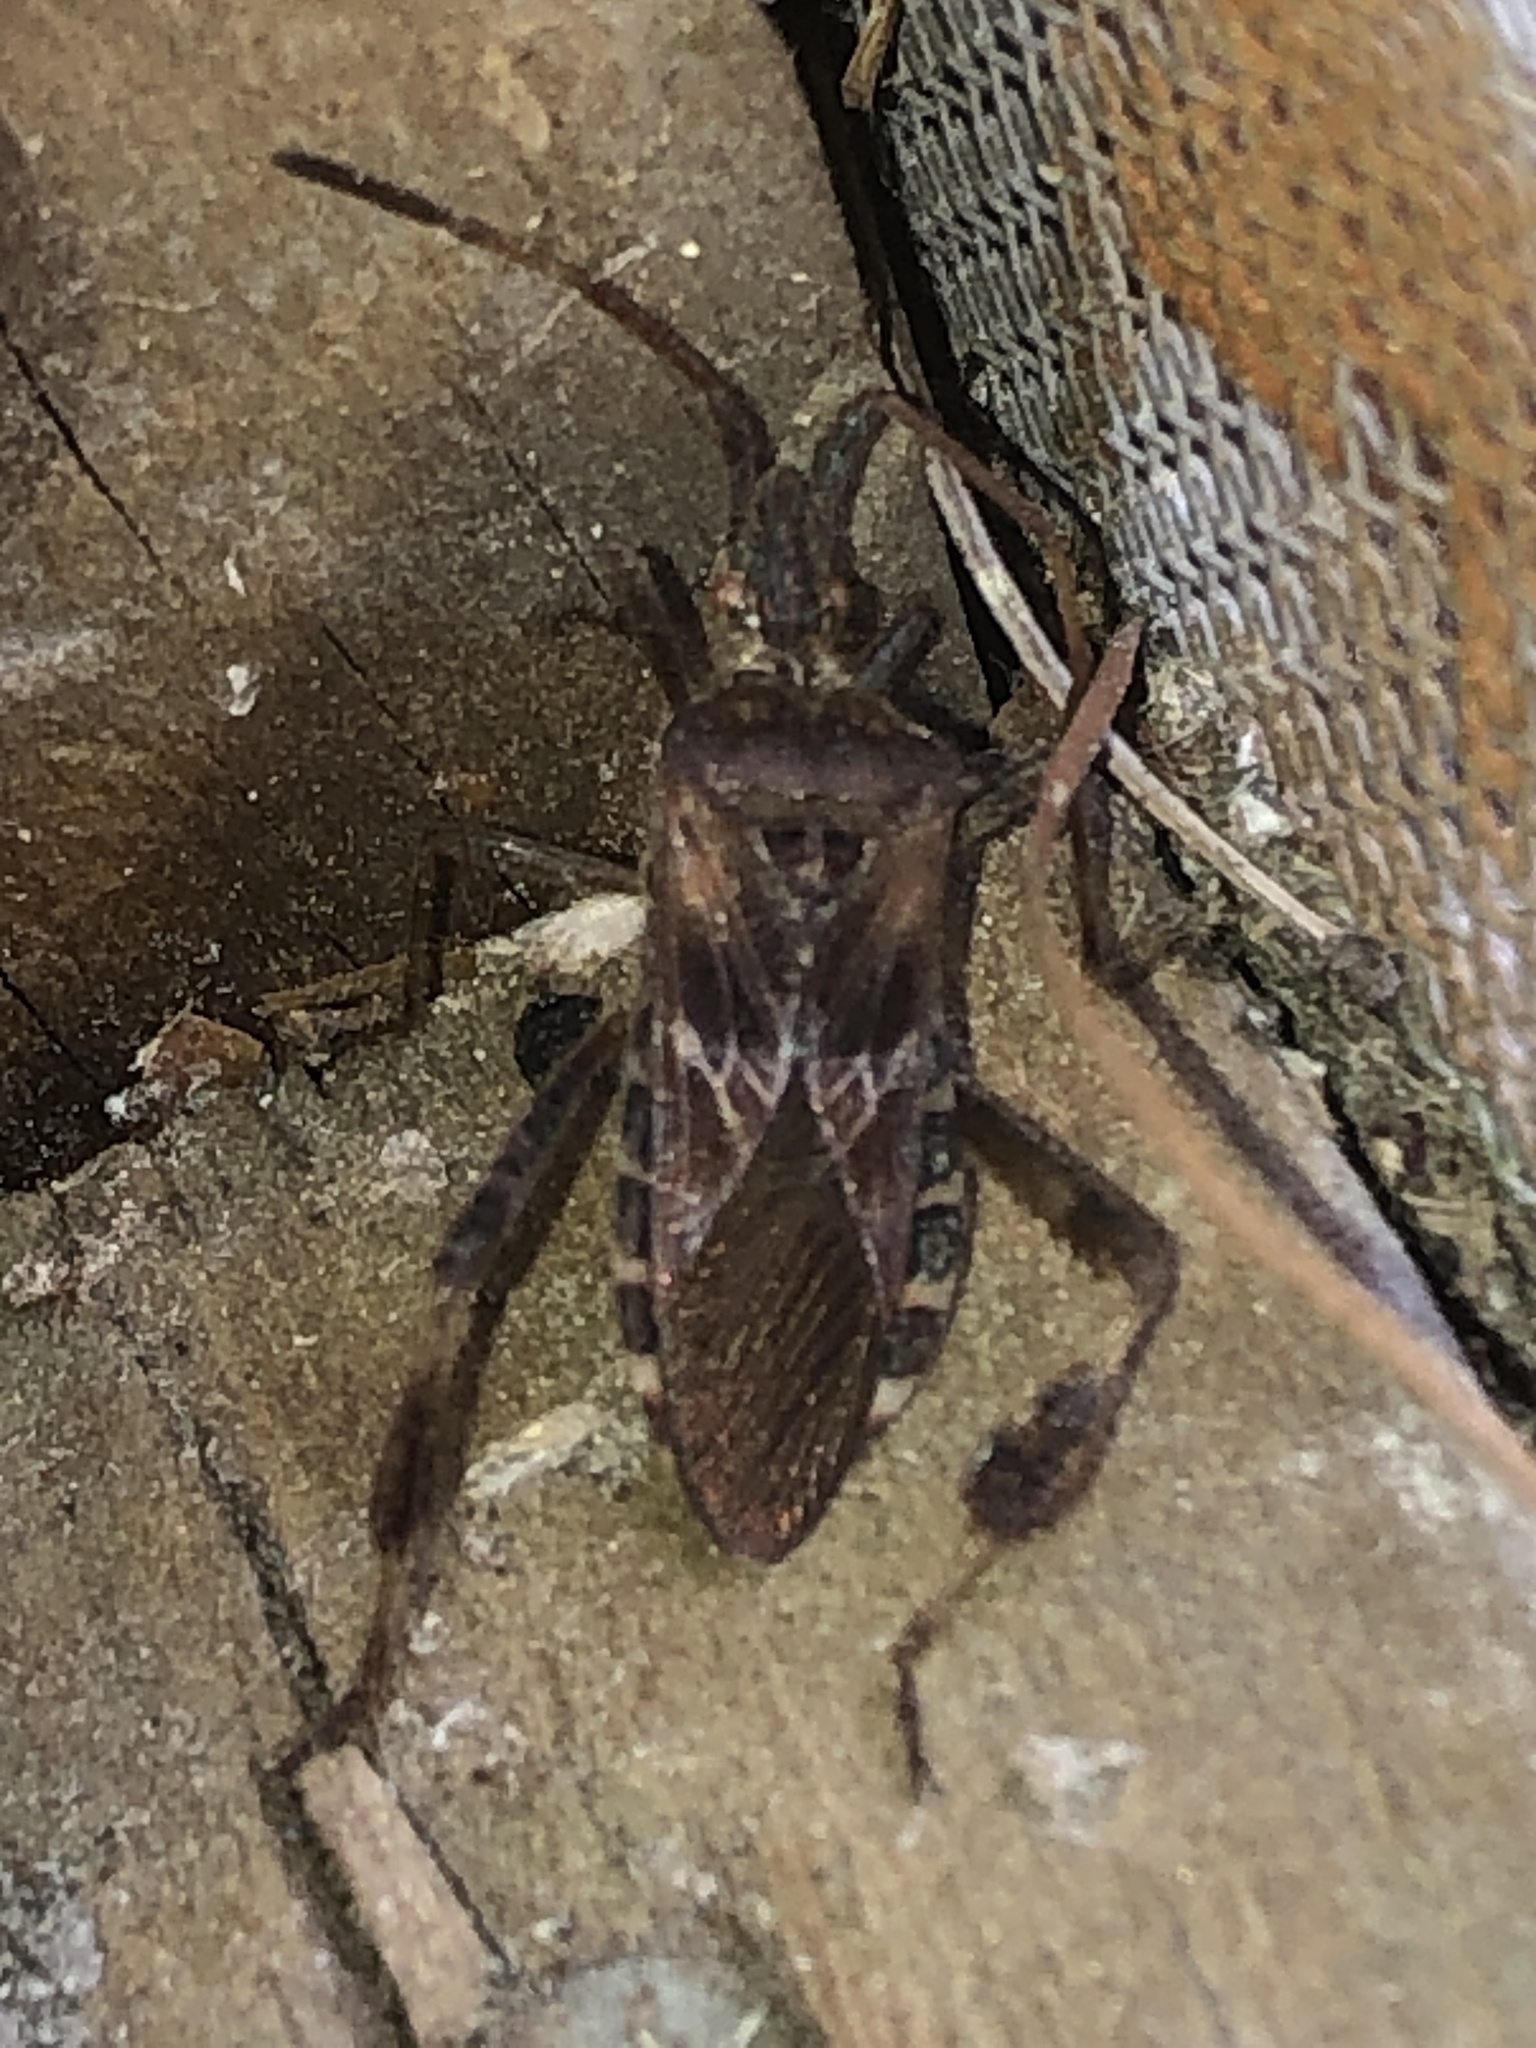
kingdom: Animalia
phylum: Arthropoda
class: Insecta
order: Hemiptera
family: Coreidae
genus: Leptoglossus
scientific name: Leptoglossus occidentalis
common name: Western conifer-seed bug
